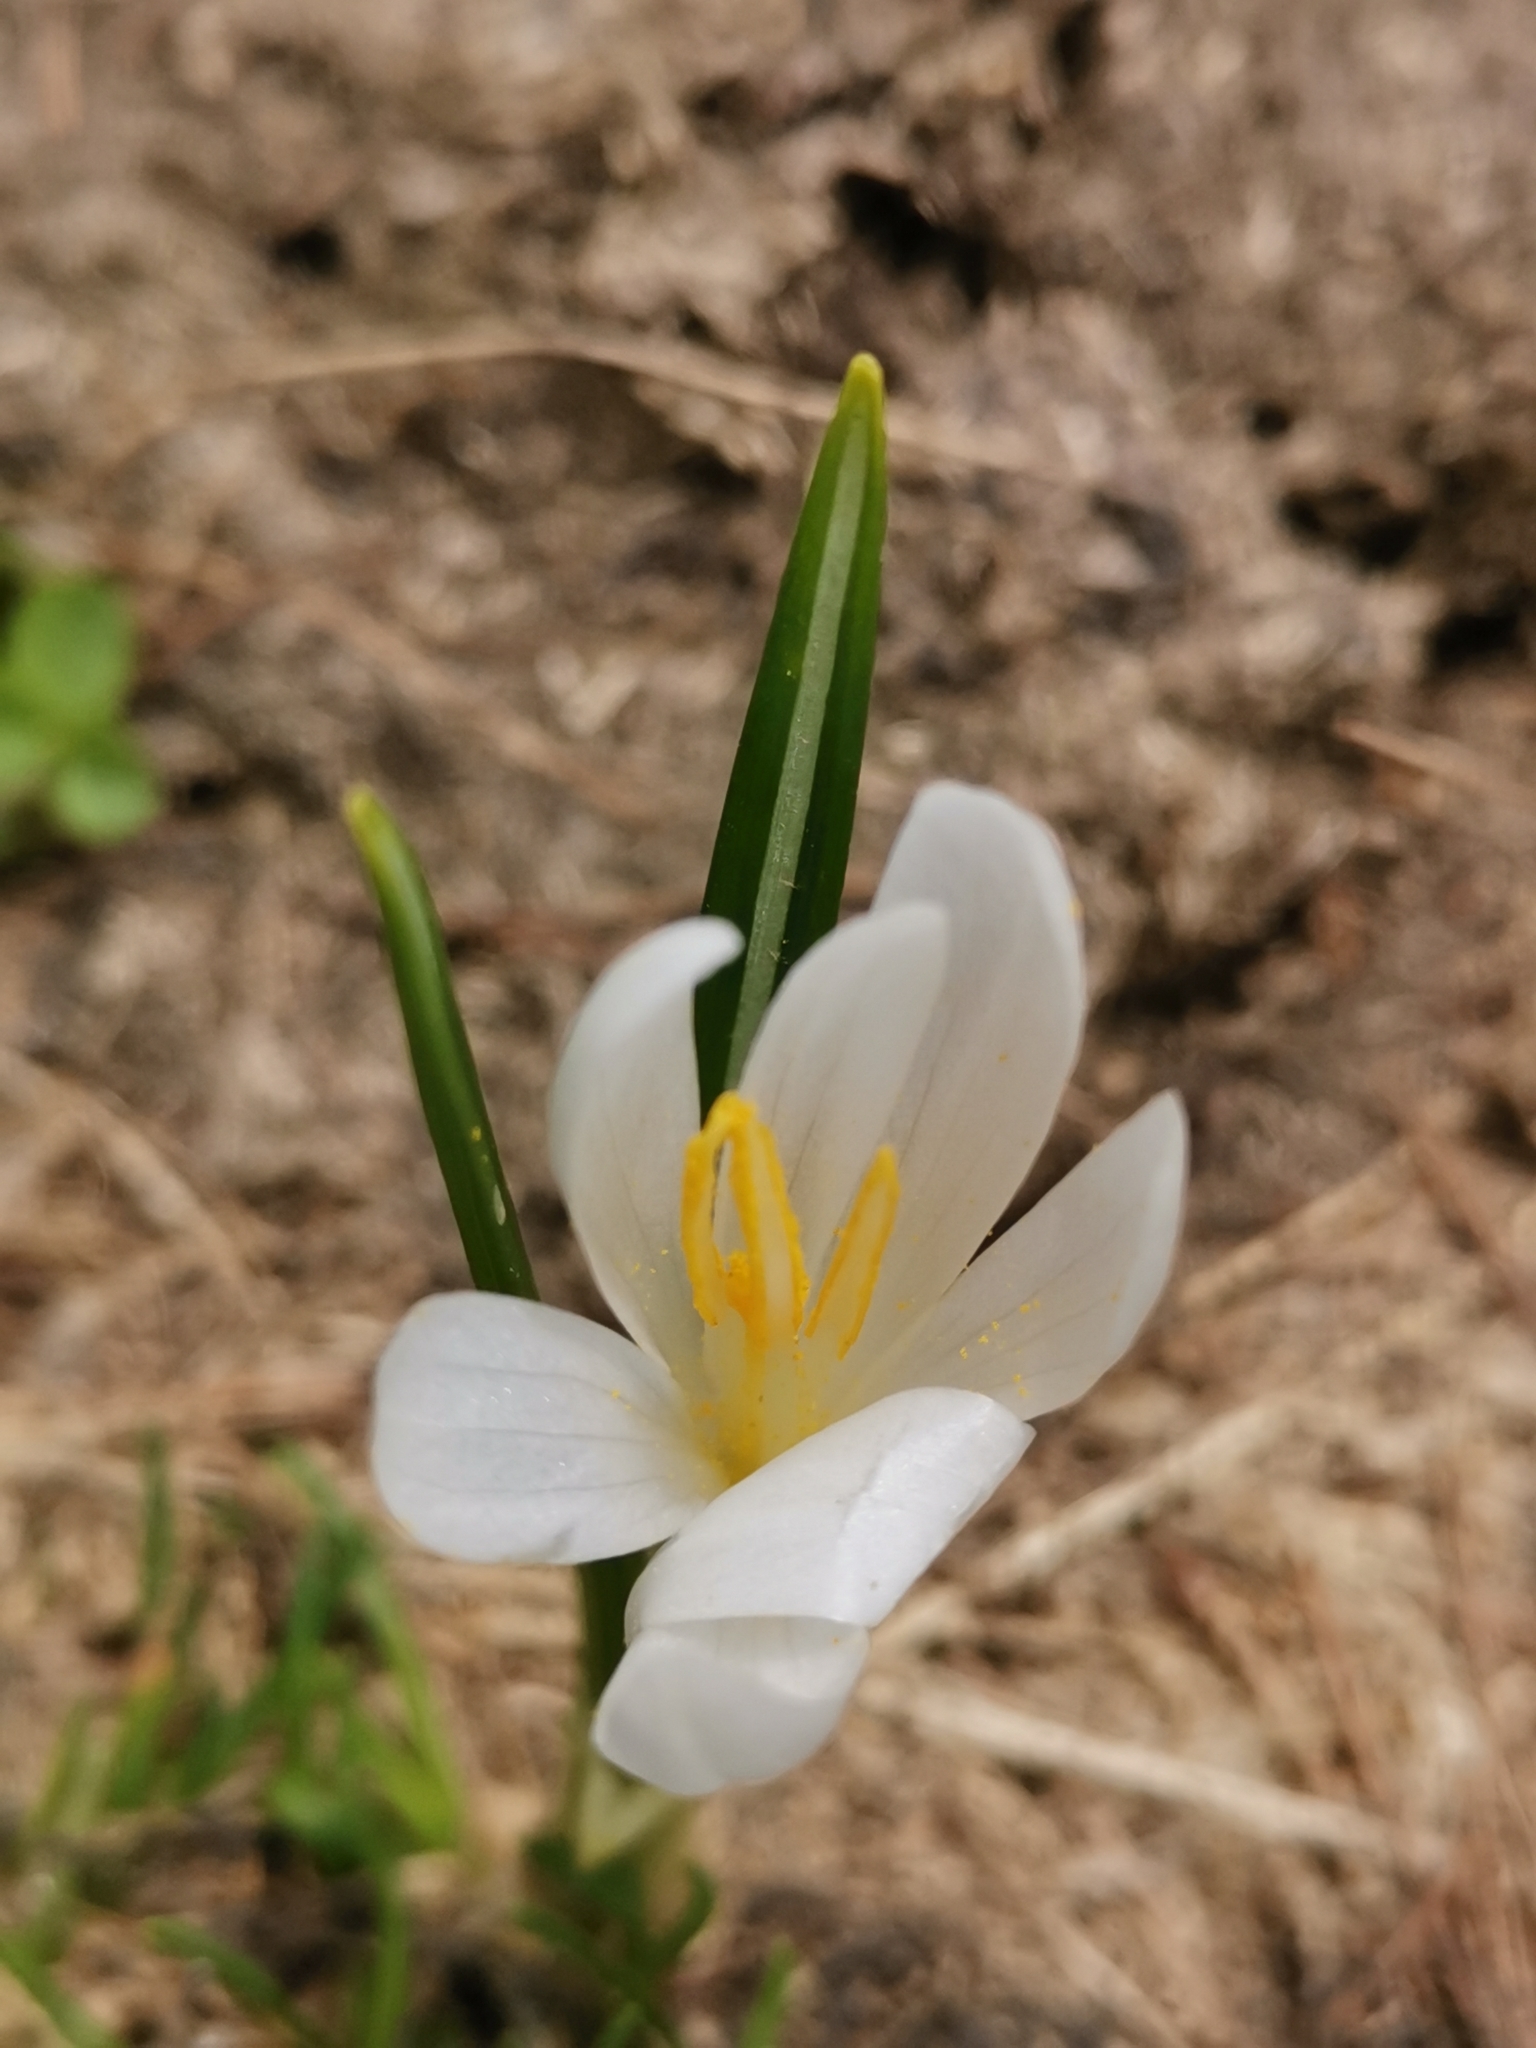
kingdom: Plantae
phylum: Tracheophyta
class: Liliopsida
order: Asparagales
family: Iridaceae
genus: Crocus
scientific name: Crocus vernus
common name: Spring crocus
